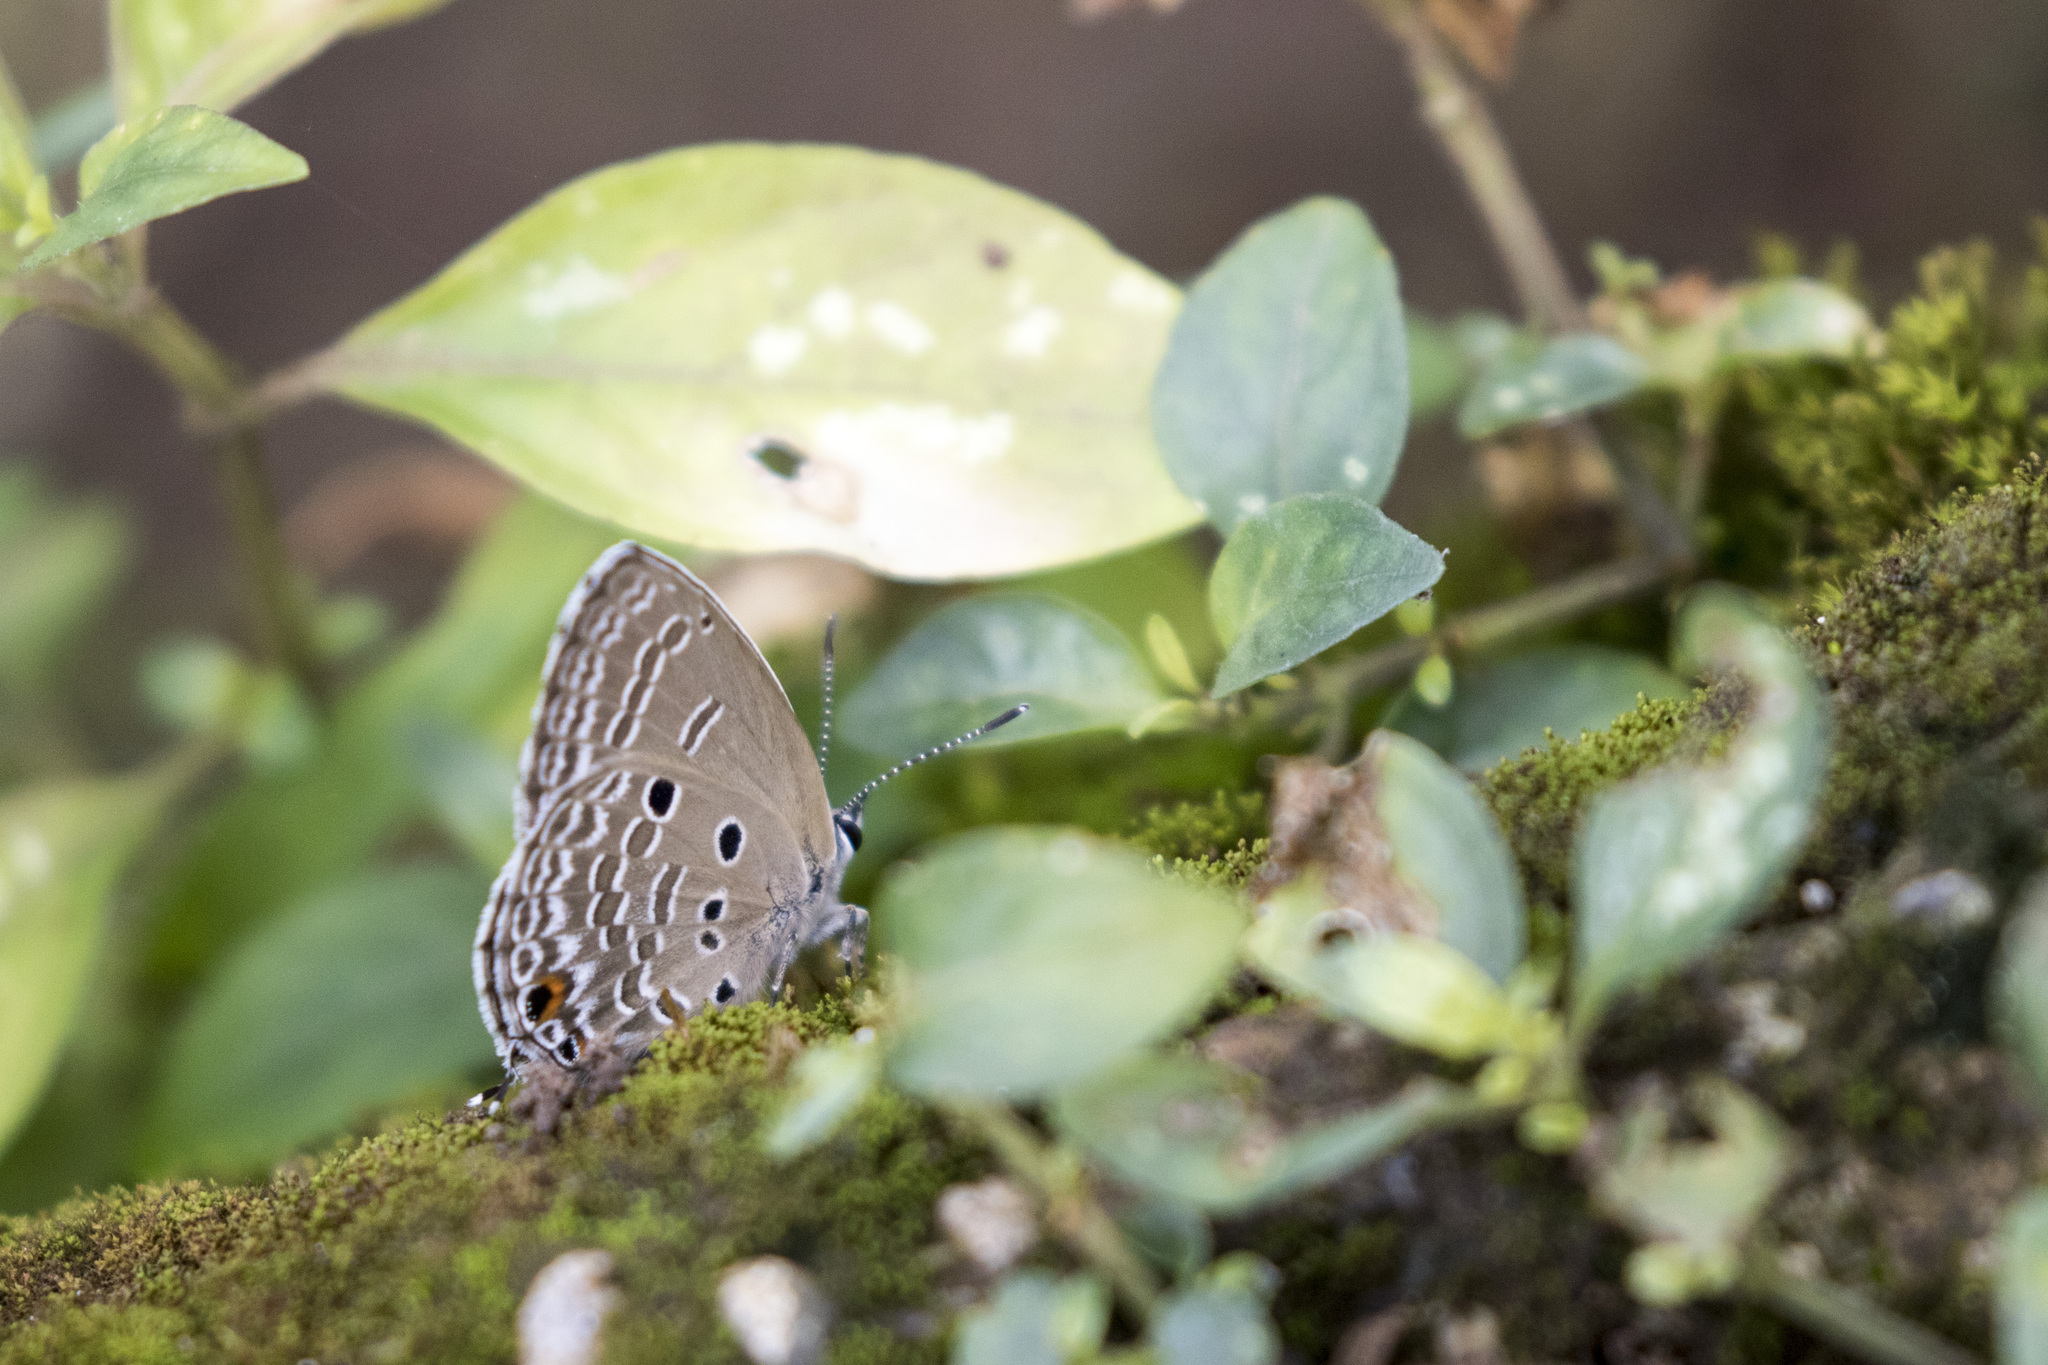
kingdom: Animalia
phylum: Arthropoda
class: Insecta
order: Lepidoptera
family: Lycaenidae
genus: Luthrodes
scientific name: Luthrodes pandava
